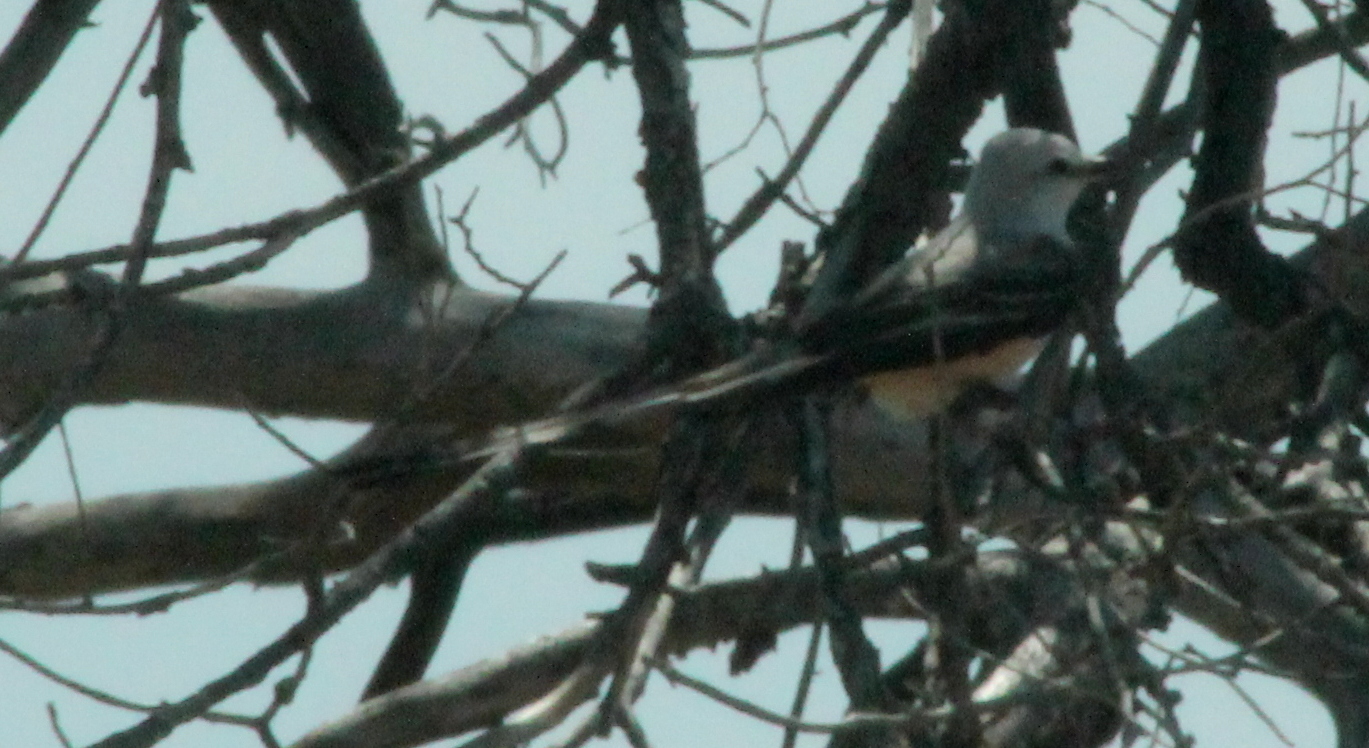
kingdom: Animalia
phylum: Chordata
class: Aves
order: Passeriformes
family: Tyrannidae
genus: Tyrannus
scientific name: Tyrannus forficatus
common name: Scissor-tailed flycatcher
